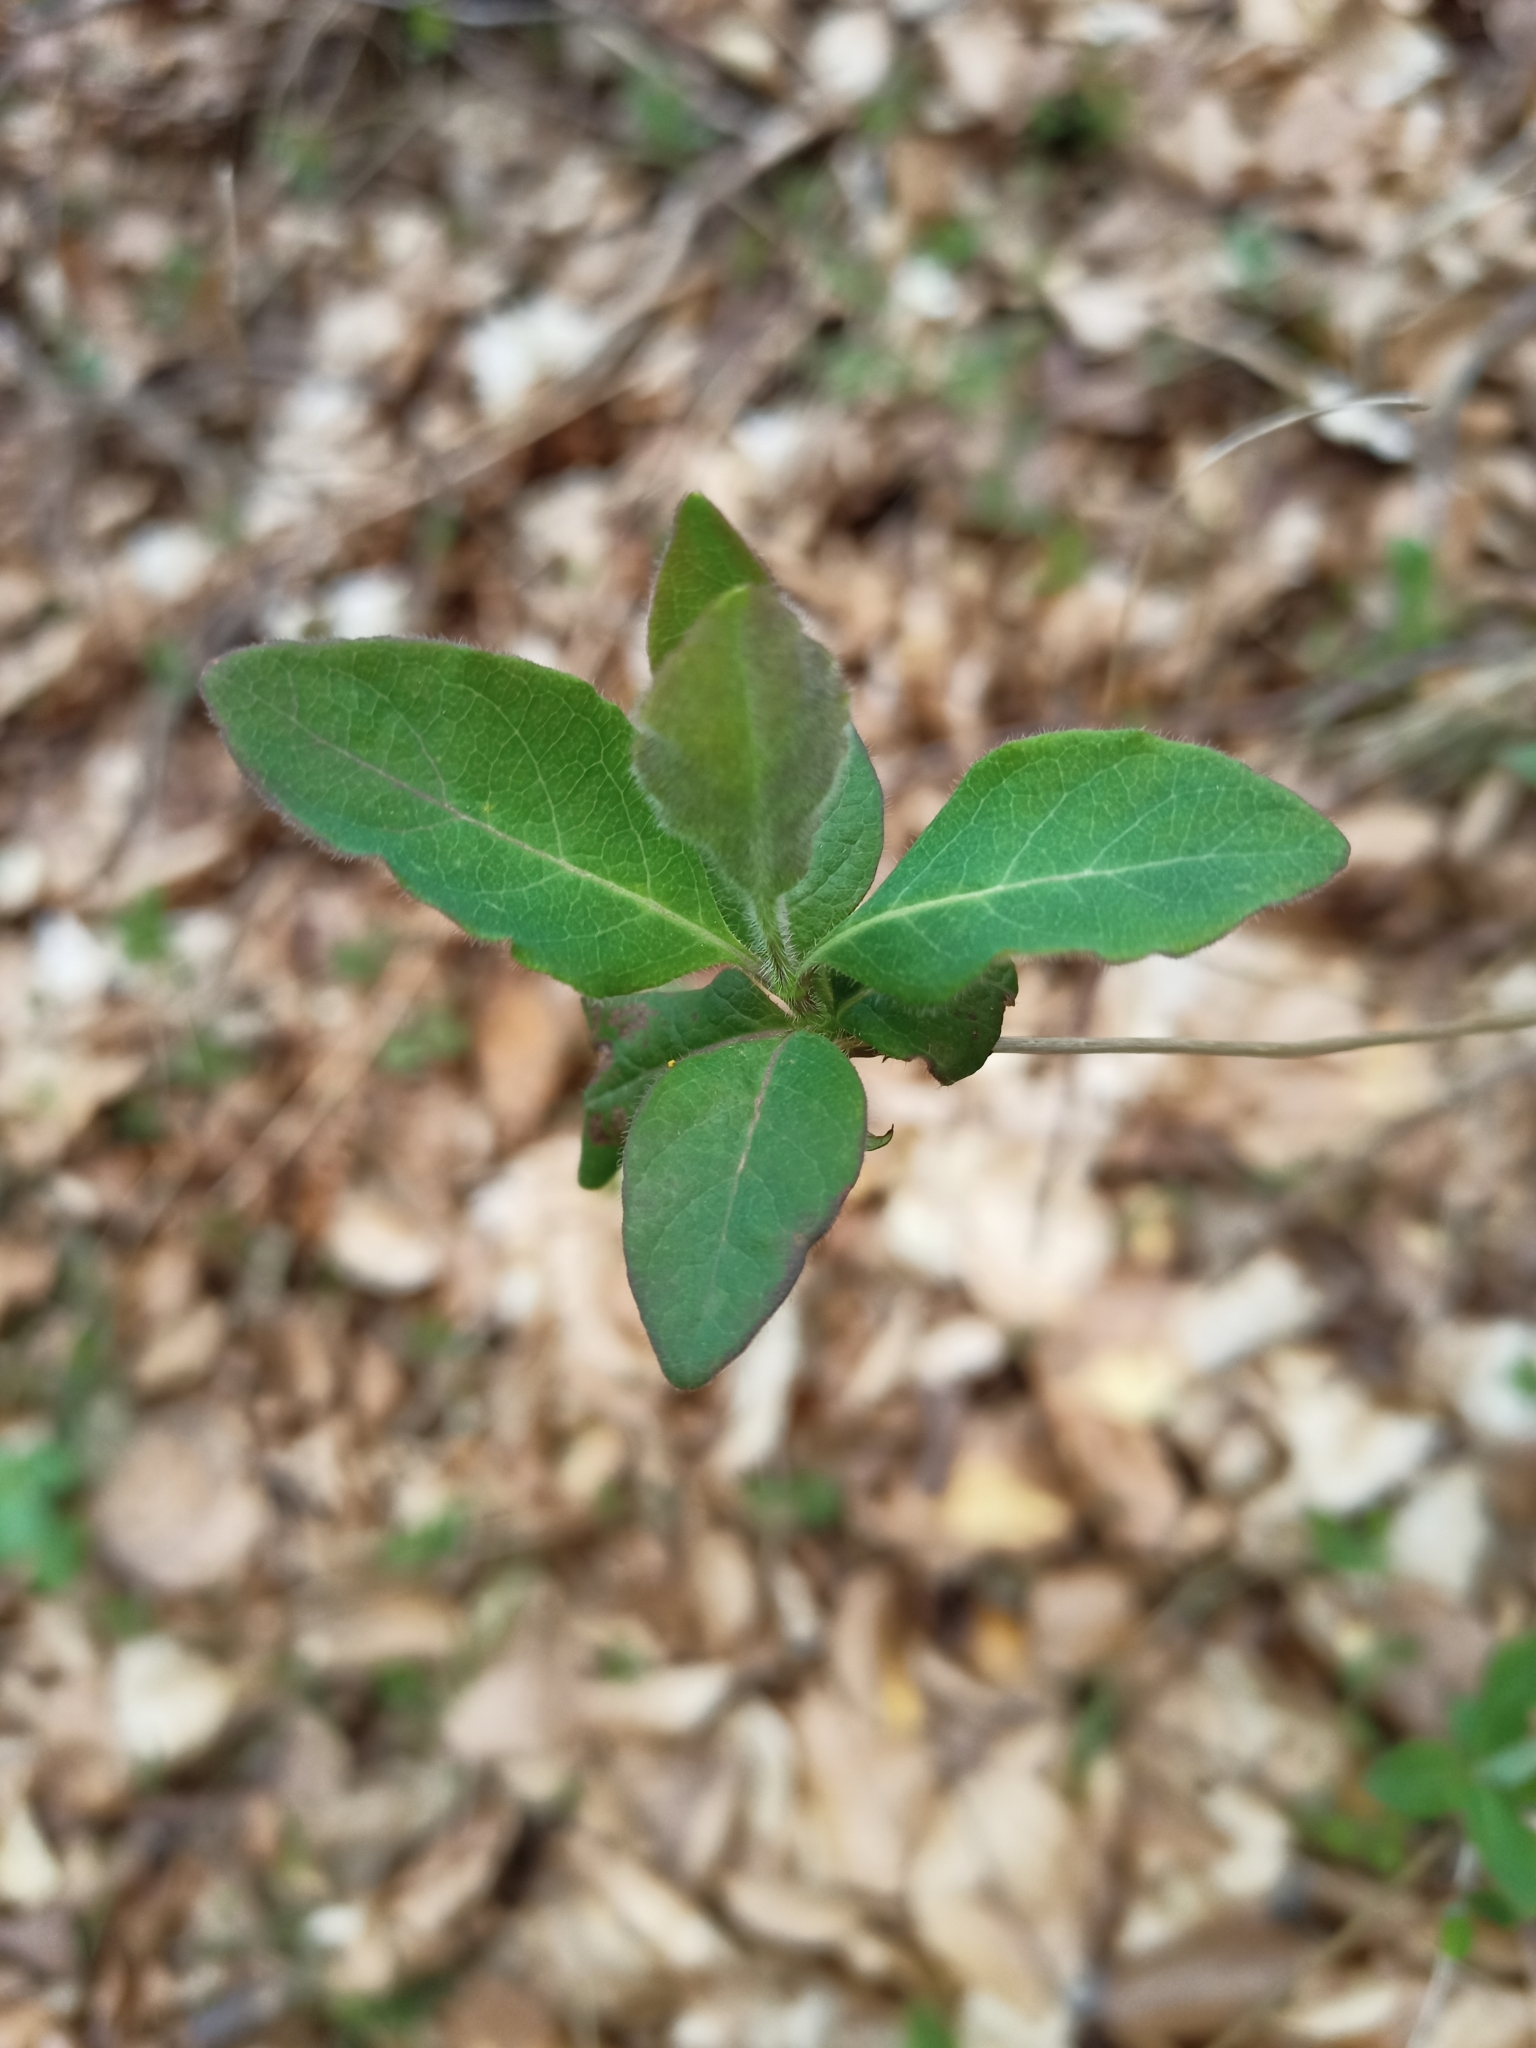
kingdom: Plantae
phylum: Tracheophyta
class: Magnoliopsida
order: Dipsacales
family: Caprifoliaceae
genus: Lonicera
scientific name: Lonicera periclymenum
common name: European honeysuckle
